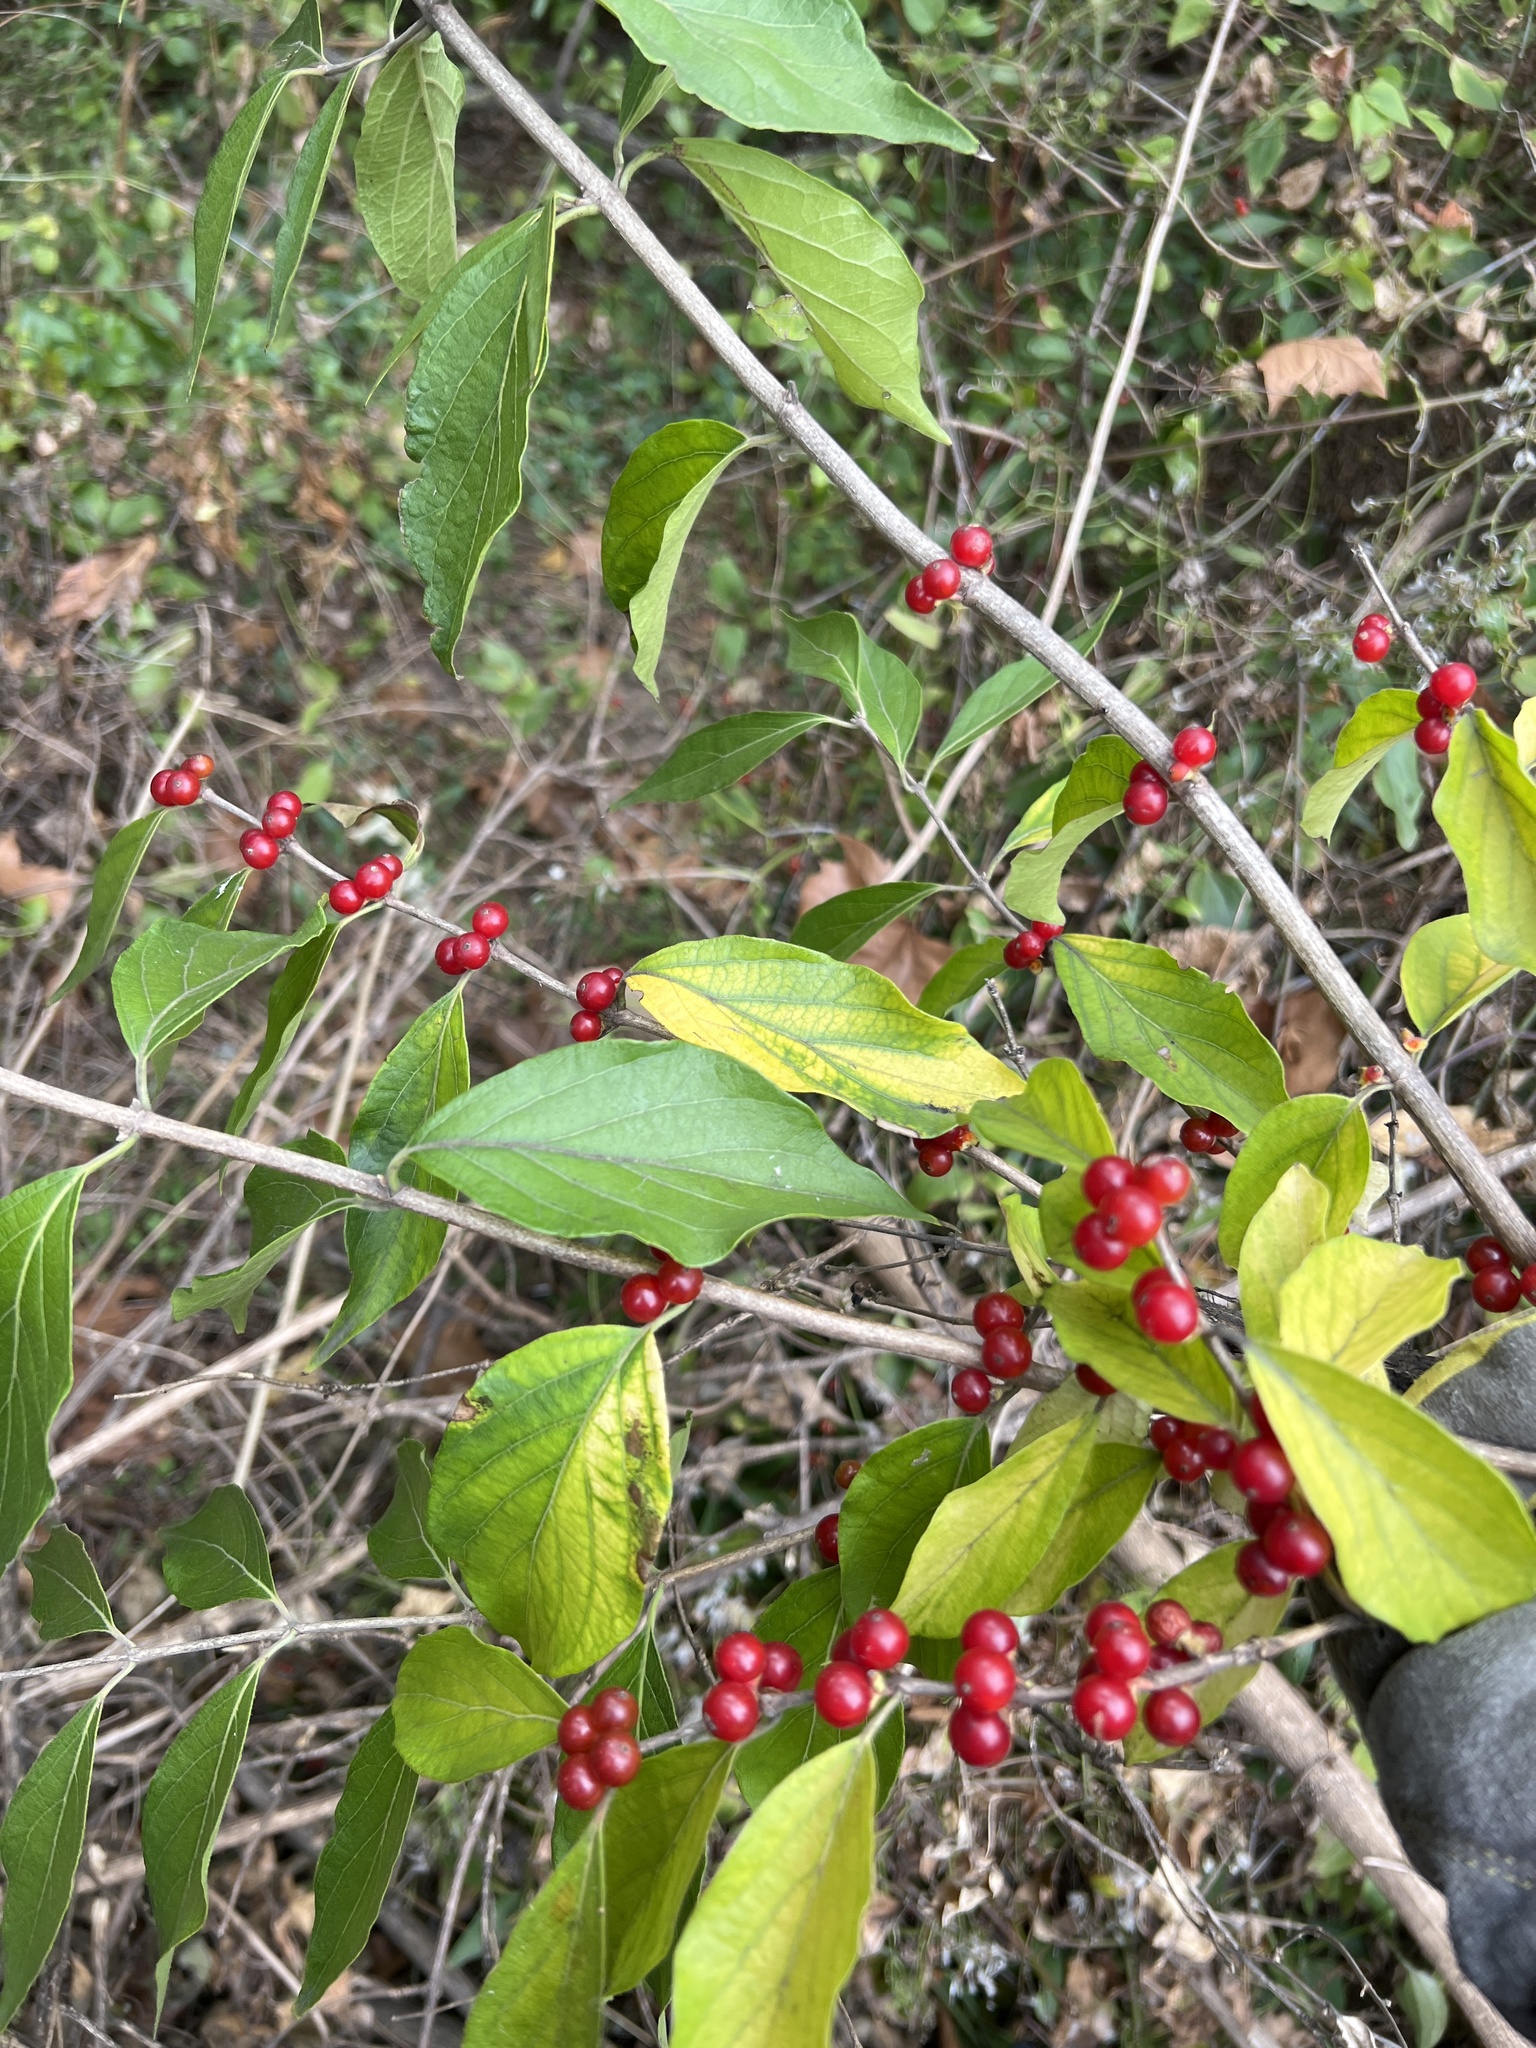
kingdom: Plantae
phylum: Tracheophyta
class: Magnoliopsida
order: Dipsacales
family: Caprifoliaceae
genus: Lonicera
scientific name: Lonicera maackii
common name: Amur honeysuckle
